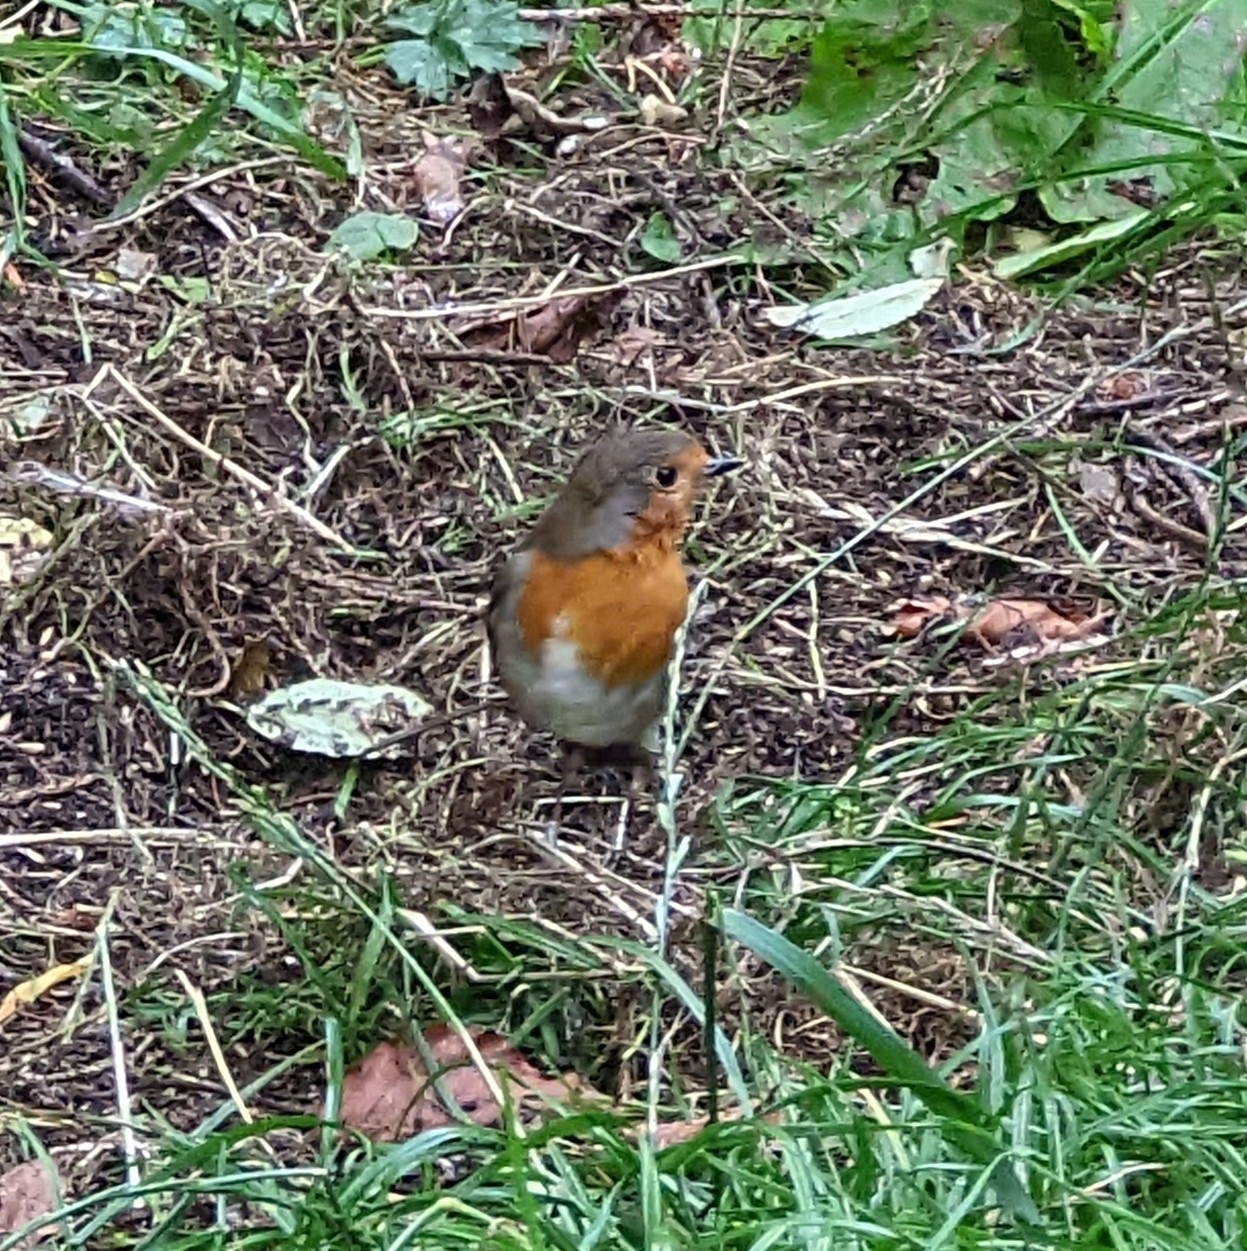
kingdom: Animalia
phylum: Chordata
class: Aves
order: Passeriformes
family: Muscicapidae
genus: Erithacus
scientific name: Erithacus rubecula
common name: European robin
